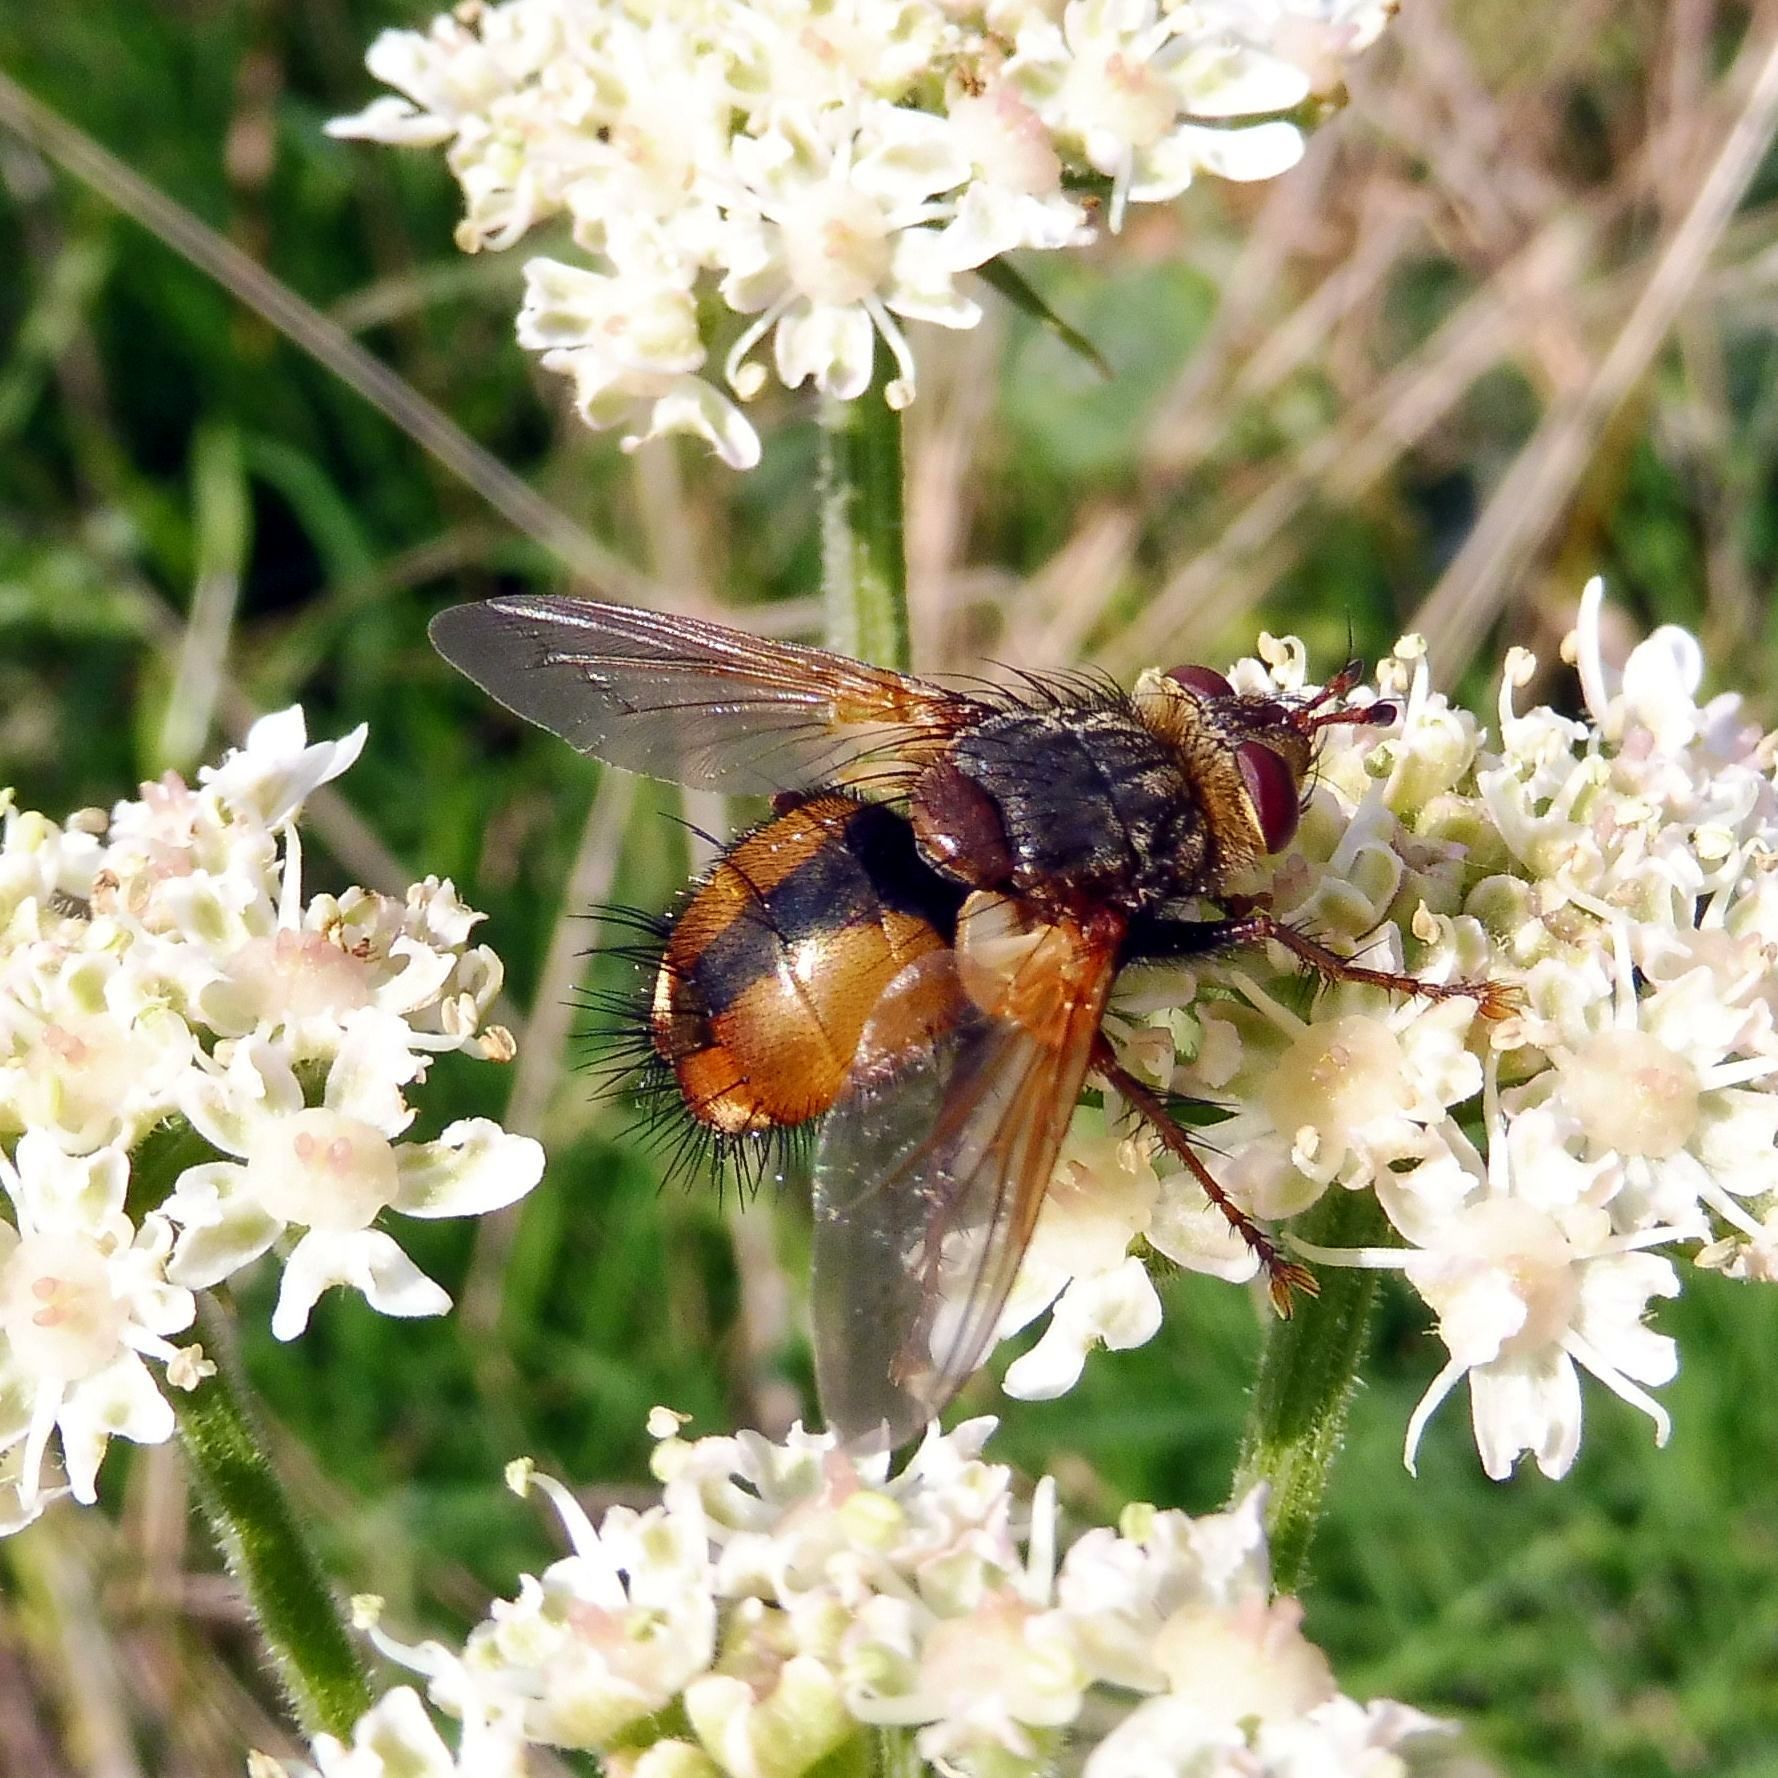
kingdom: Animalia
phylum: Arthropoda
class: Insecta
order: Diptera
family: Tachinidae
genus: Tachina
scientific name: Tachina fera
